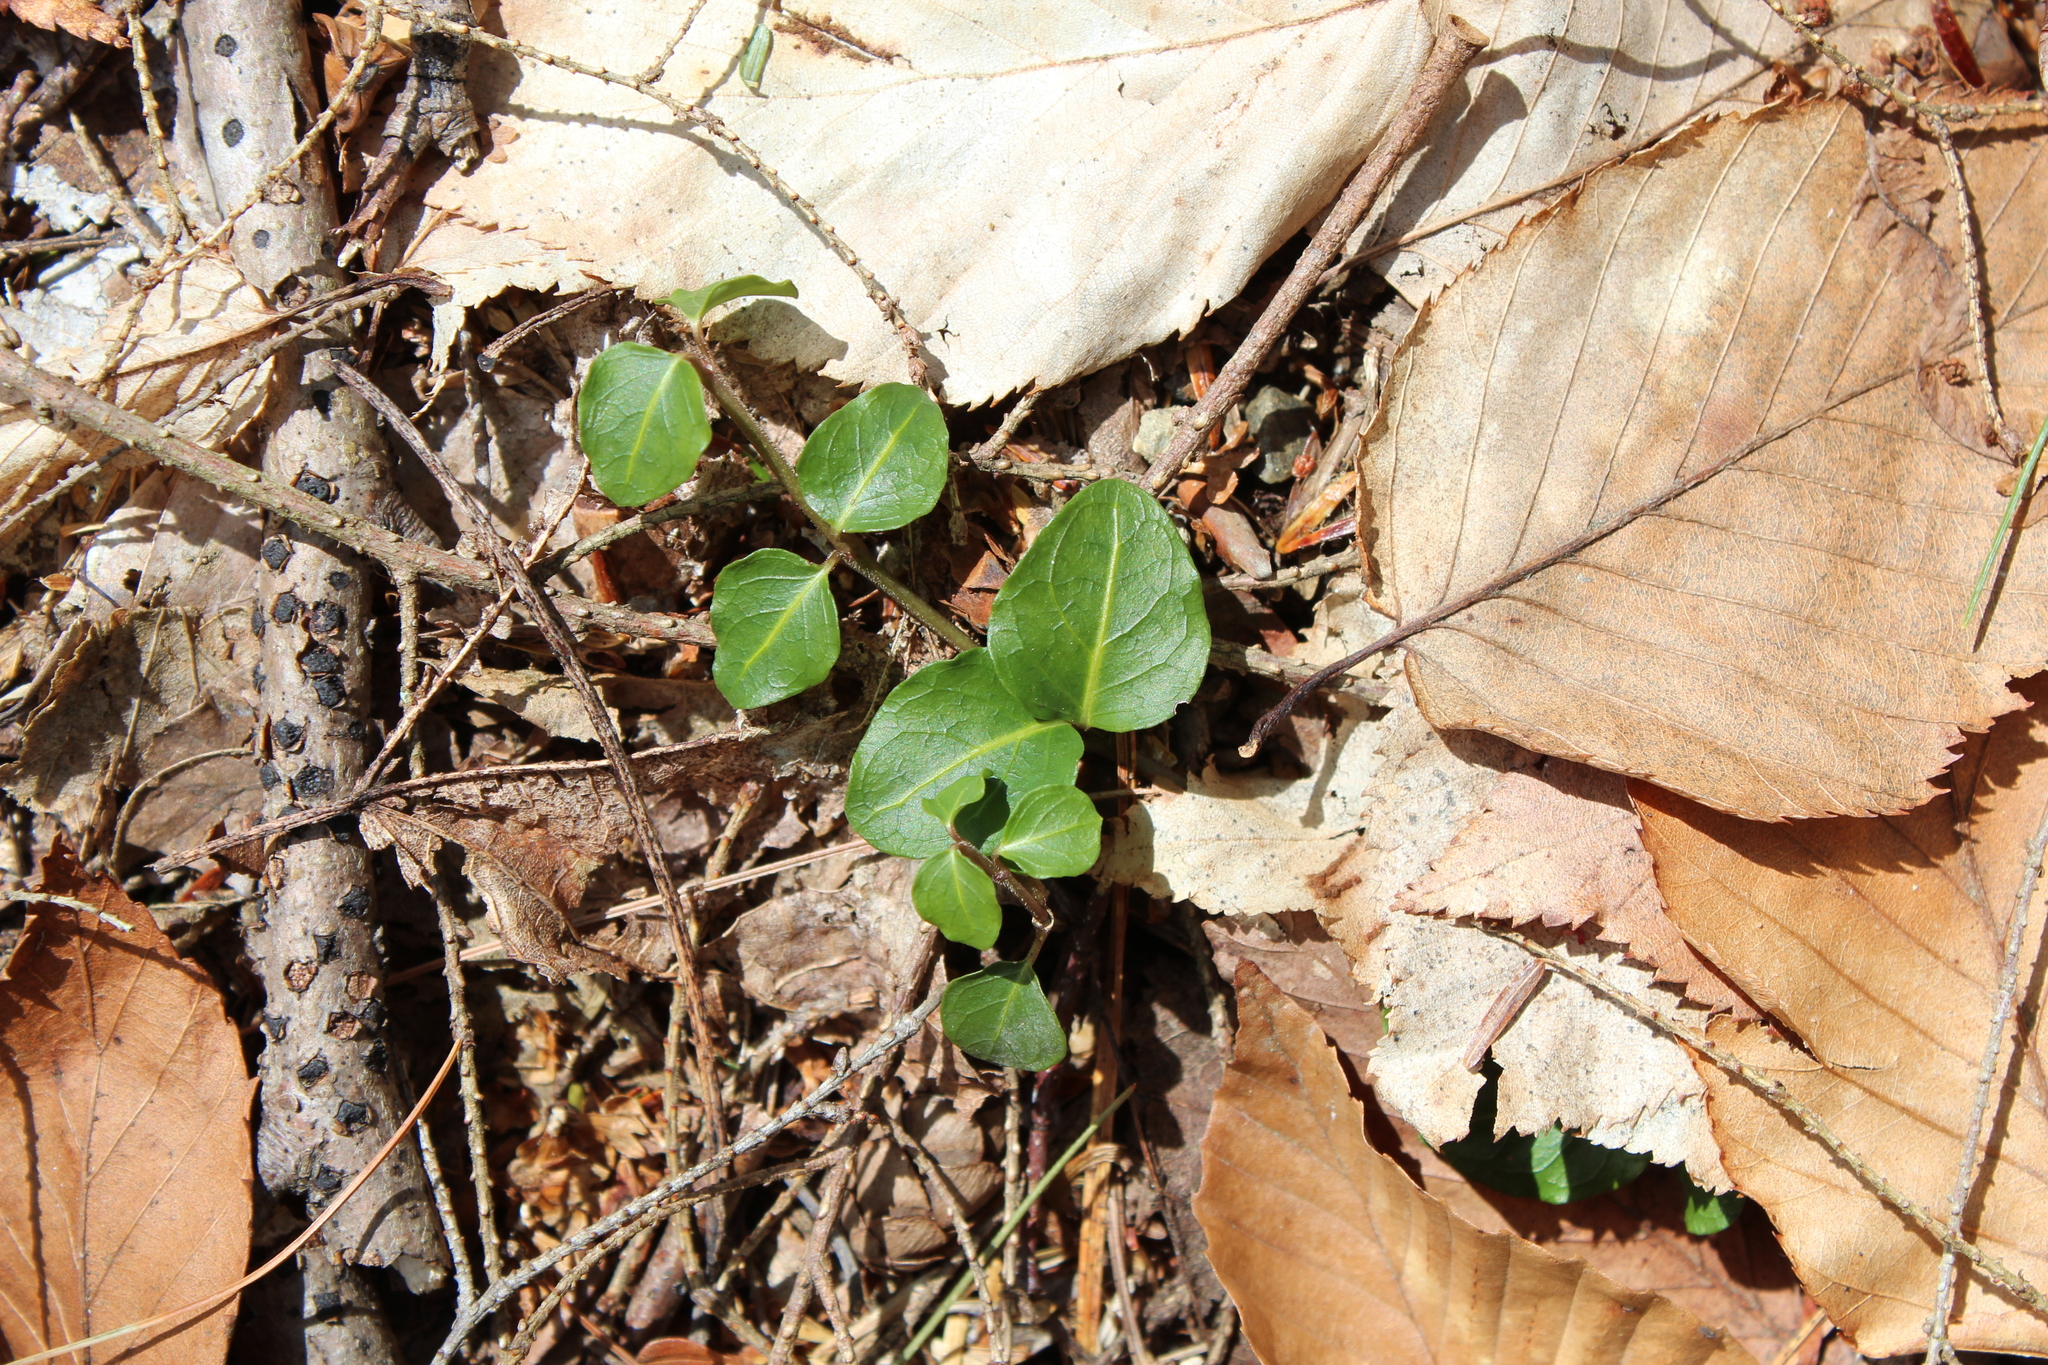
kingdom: Plantae
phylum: Tracheophyta
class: Magnoliopsida
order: Gentianales
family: Rubiaceae
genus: Mitchella
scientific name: Mitchella repens
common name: Partridge-berry
